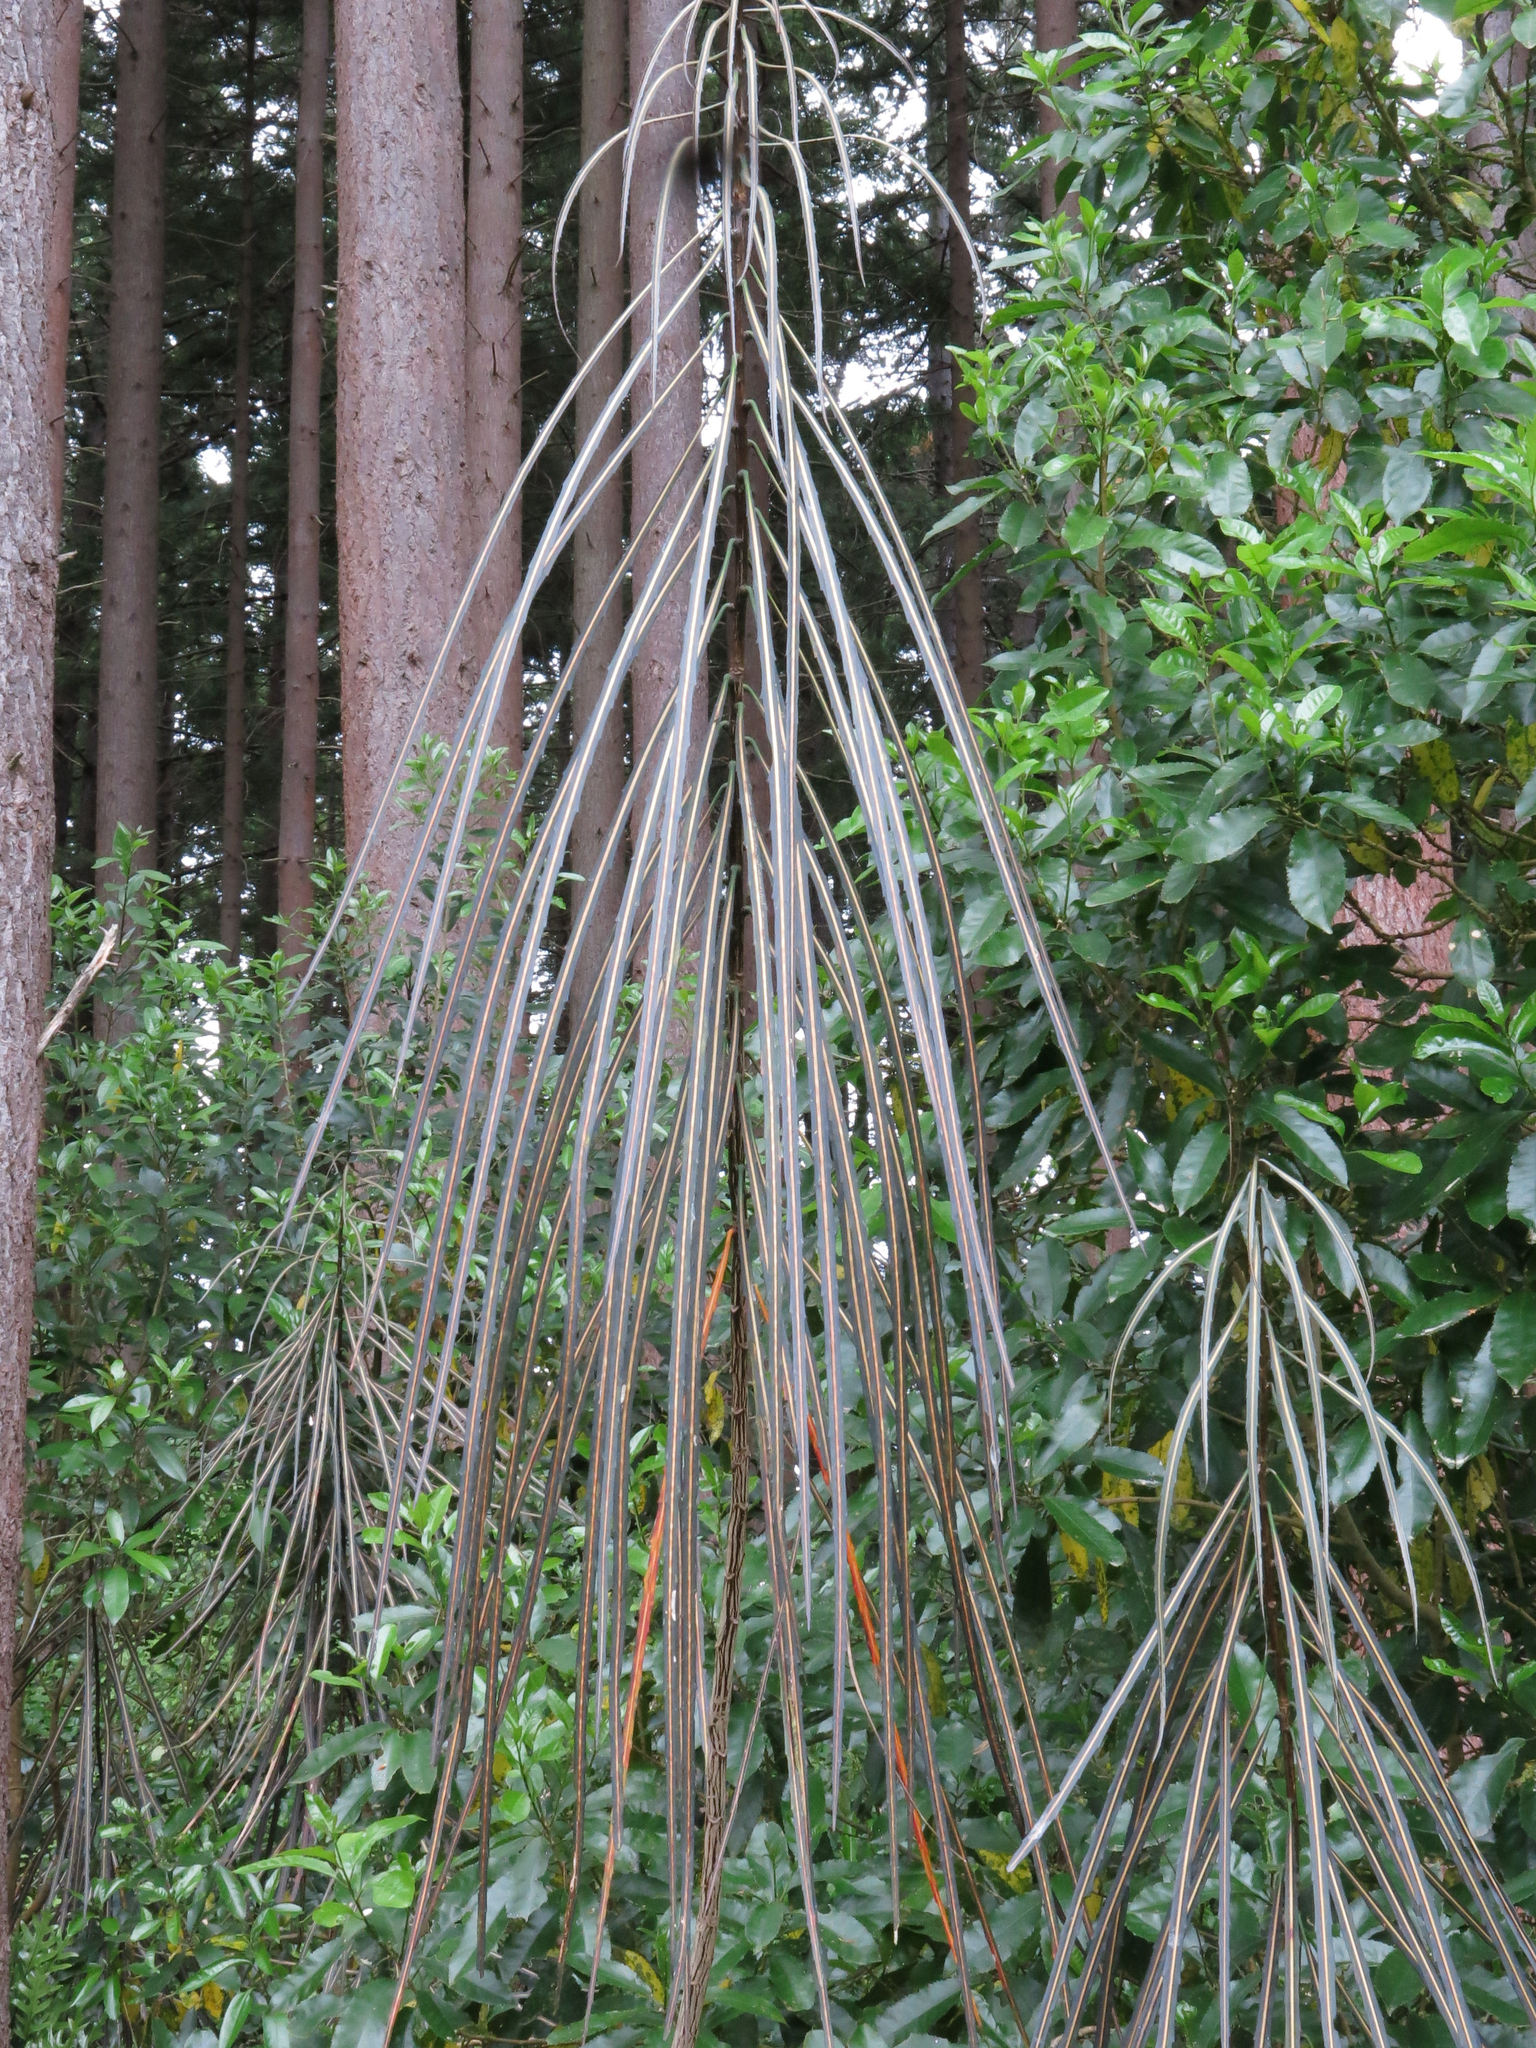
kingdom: Plantae
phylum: Tracheophyta
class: Magnoliopsida
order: Apiales
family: Araliaceae
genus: Pseudopanax
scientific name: Pseudopanax crassifolius
